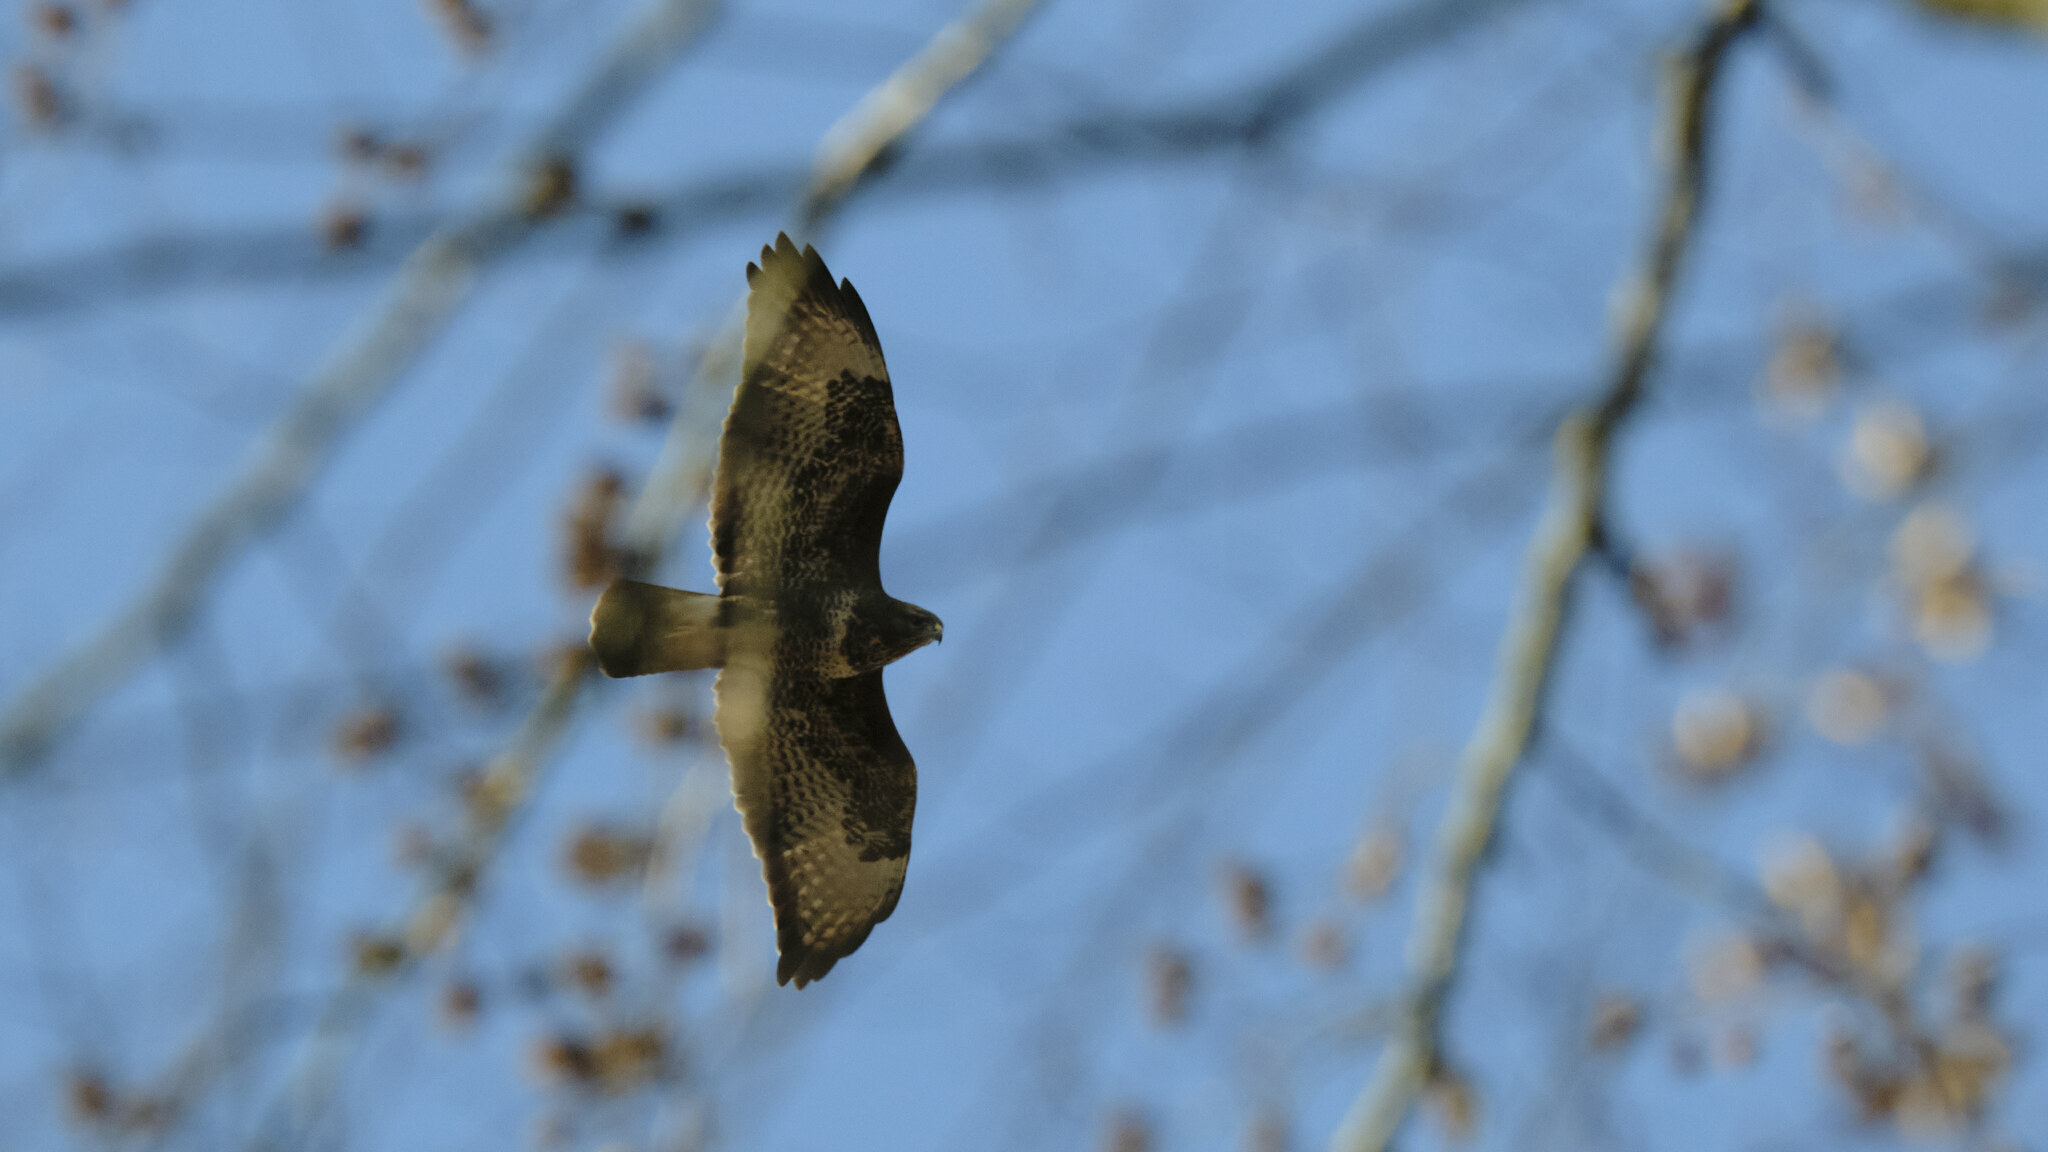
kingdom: Animalia
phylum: Chordata
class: Aves
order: Accipitriformes
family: Accipitridae
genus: Buteo
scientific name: Buteo buteo
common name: Common buzzard
